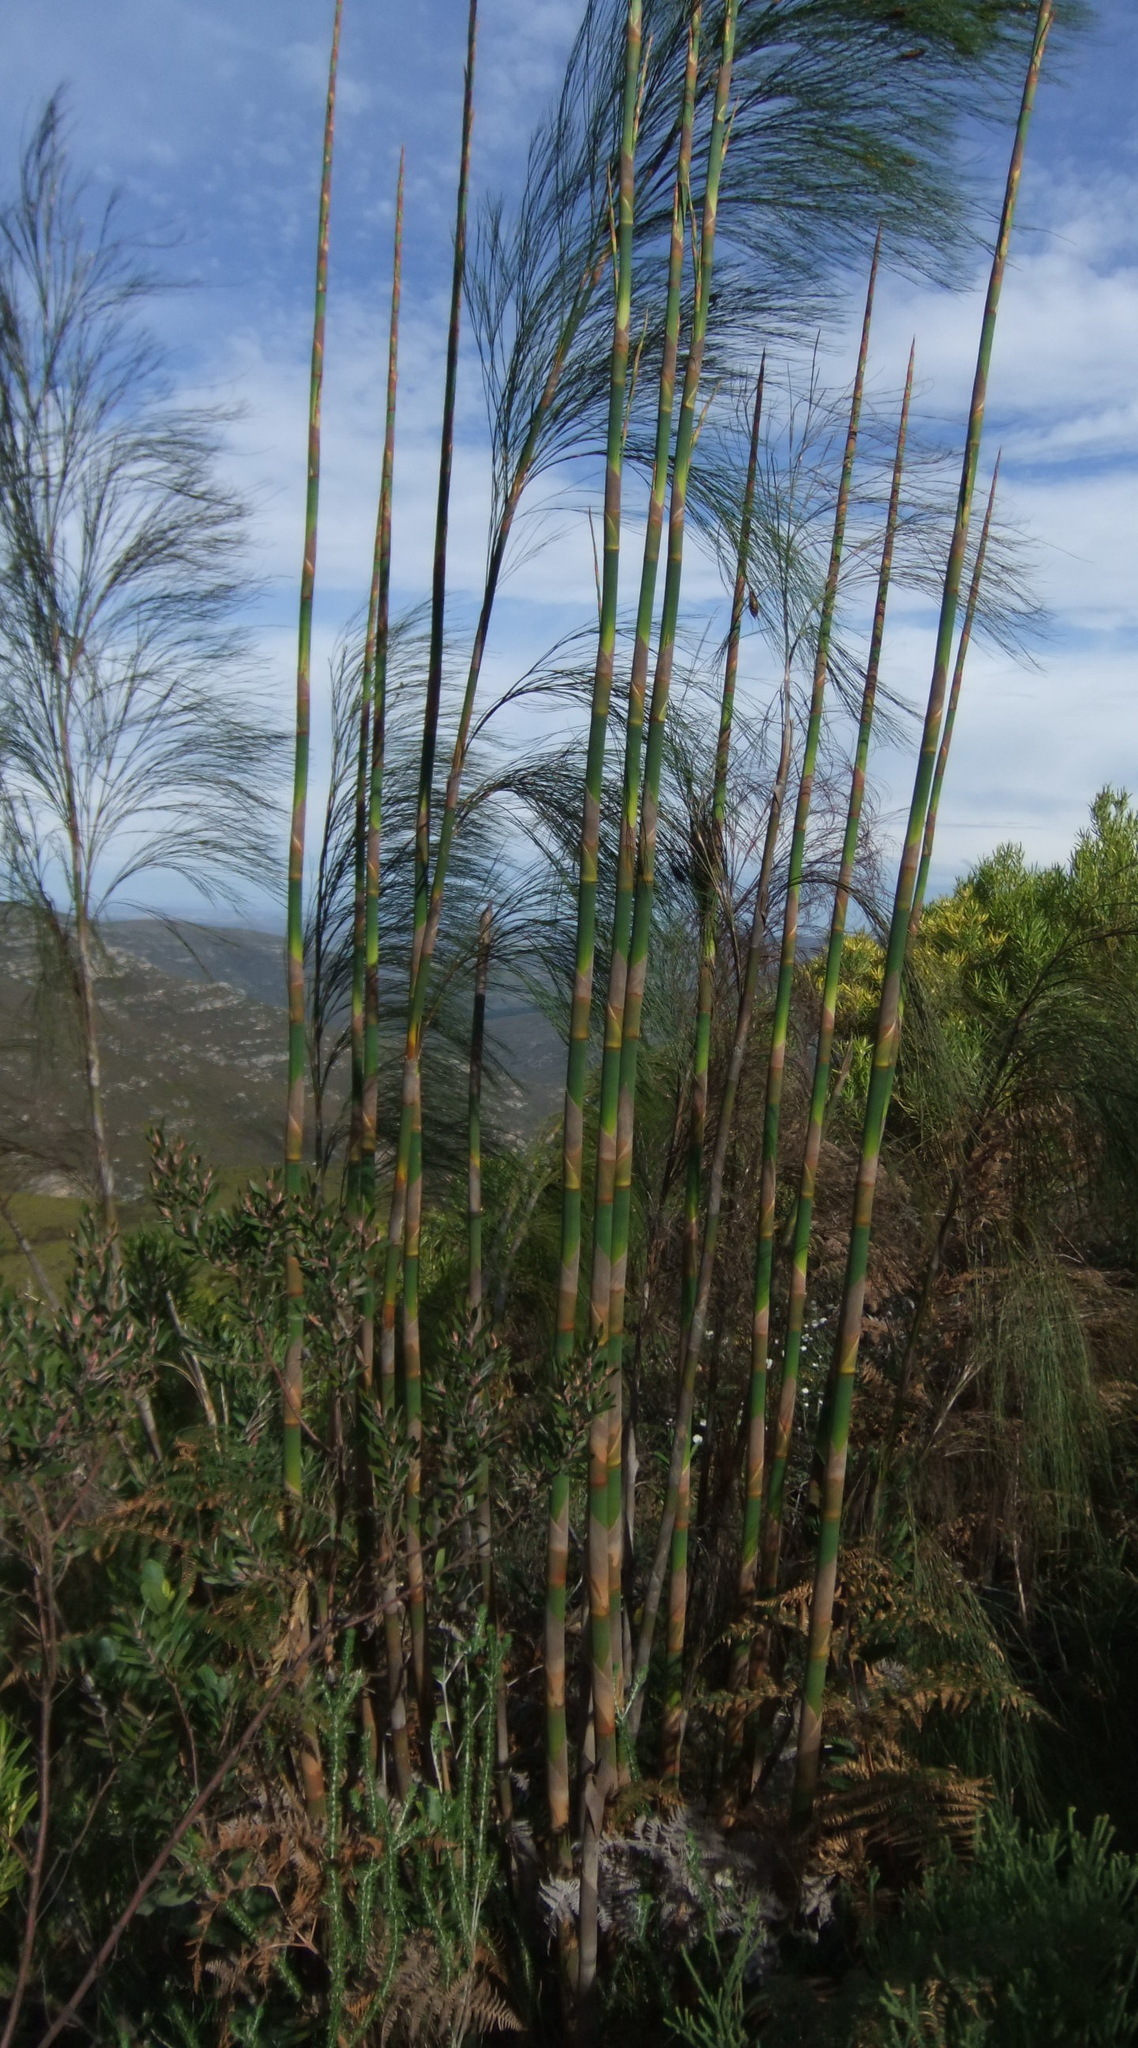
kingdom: Plantae
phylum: Tracheophyta
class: Liliopsida
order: Poales
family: Restionaceae
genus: Cannomois
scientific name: Cannomois grandis
